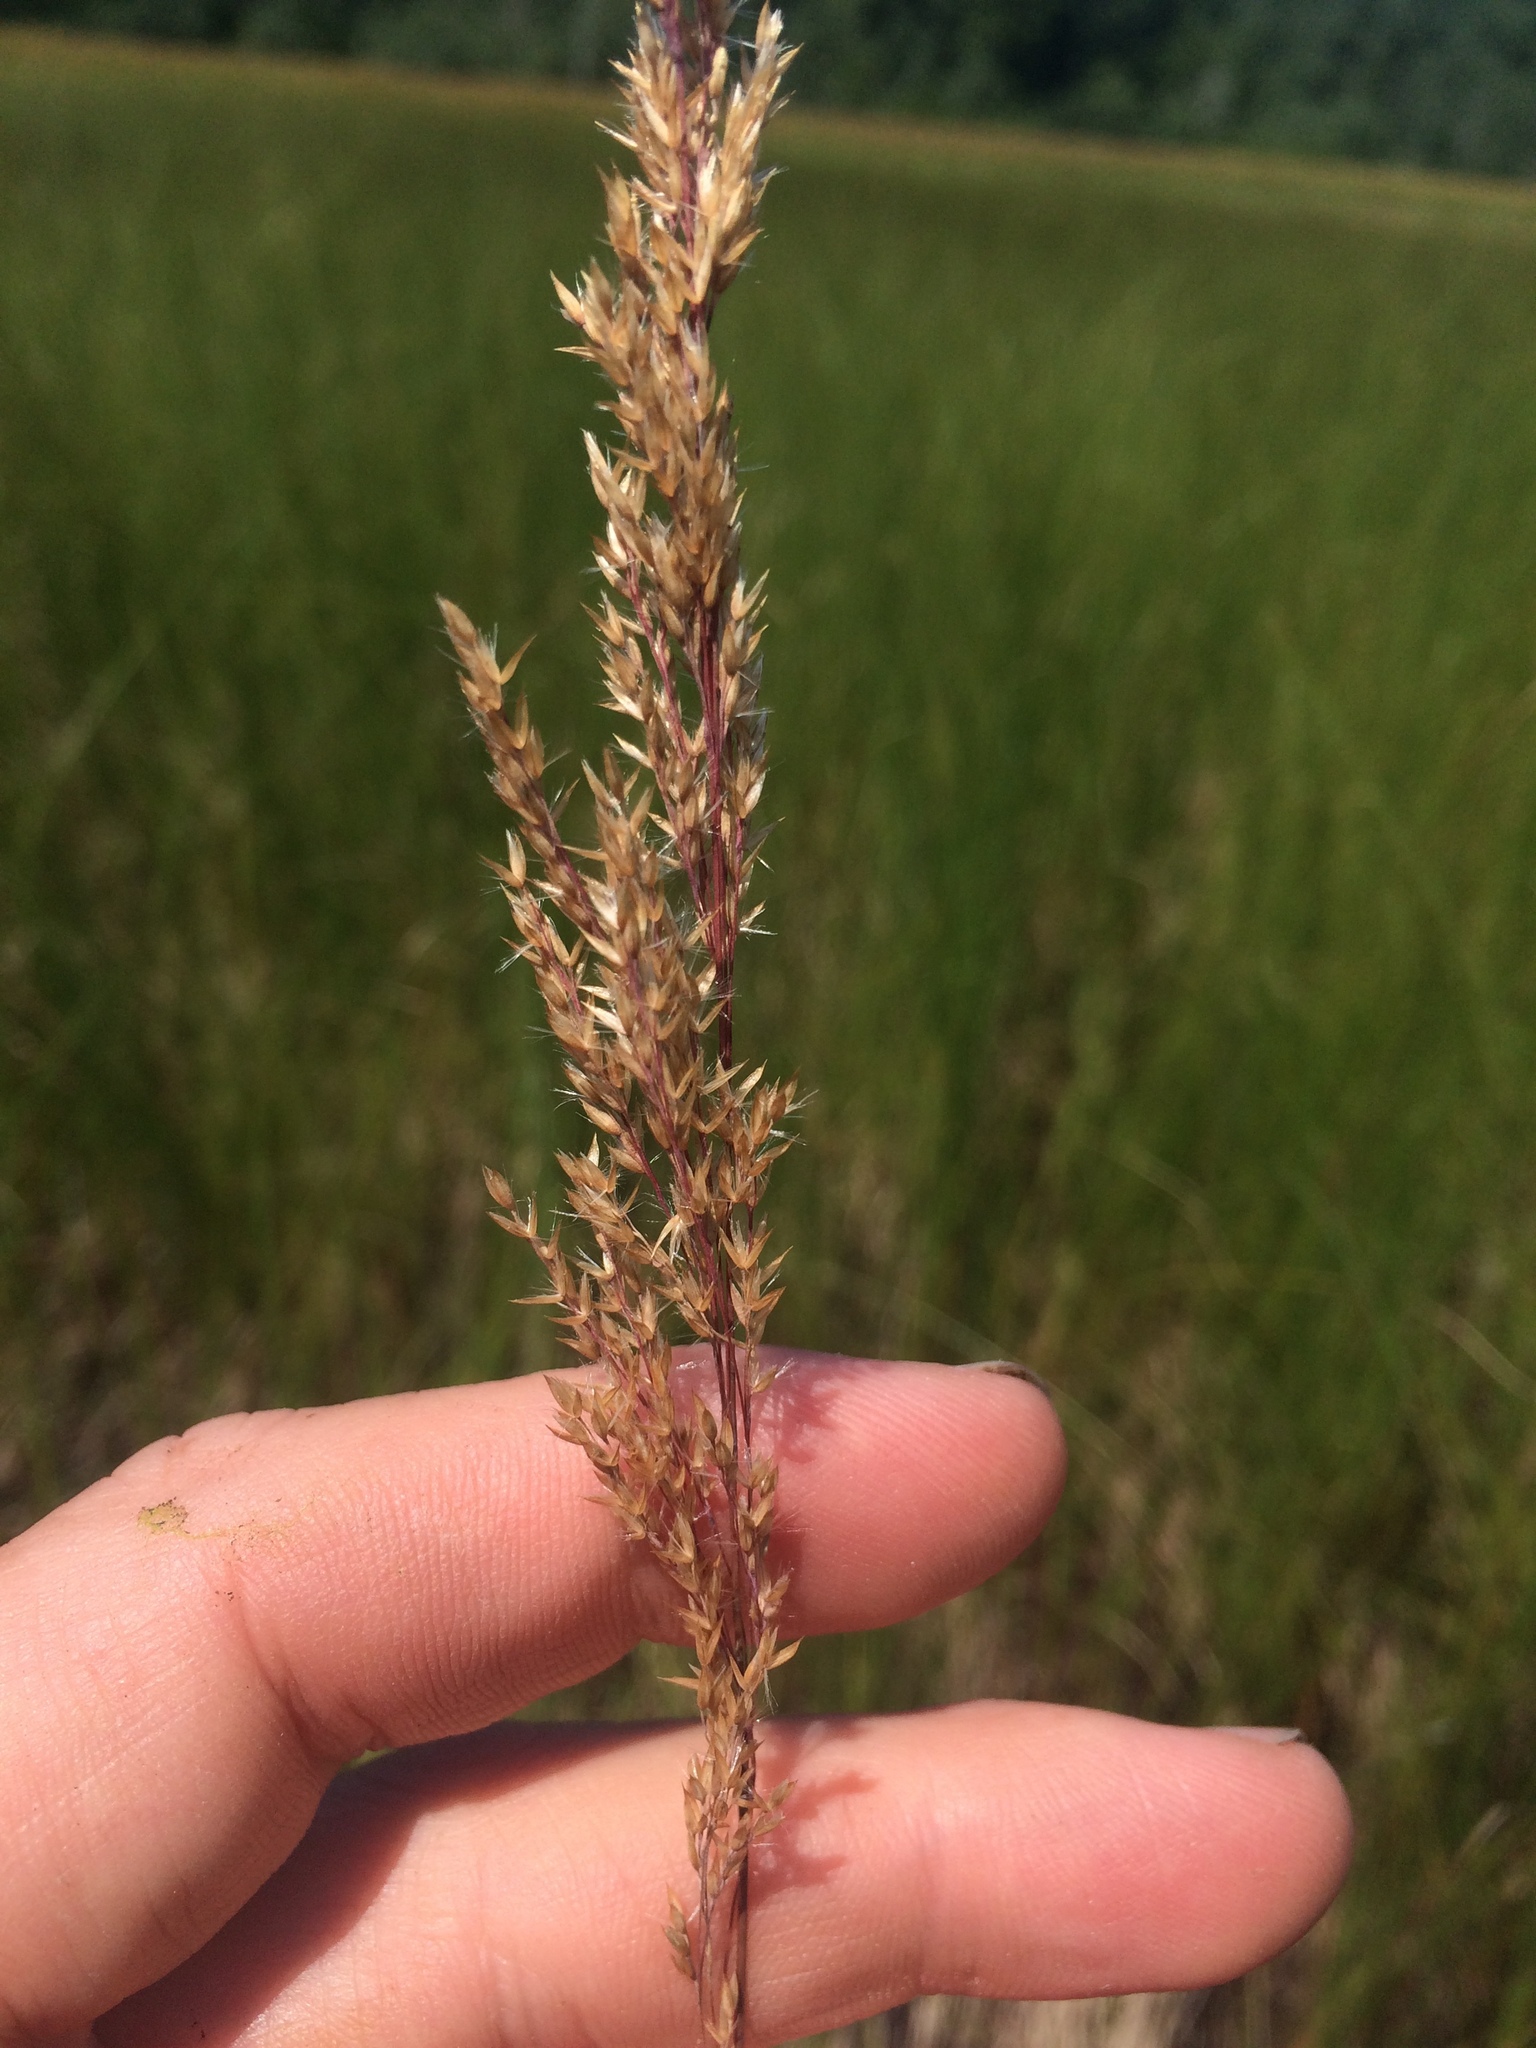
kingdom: Plantae
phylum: Tracheophyta
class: Liliopsida
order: Poales
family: Poaceae
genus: Calamagrostis
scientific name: Calamagrostis canadensis
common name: Canada bluejoint
